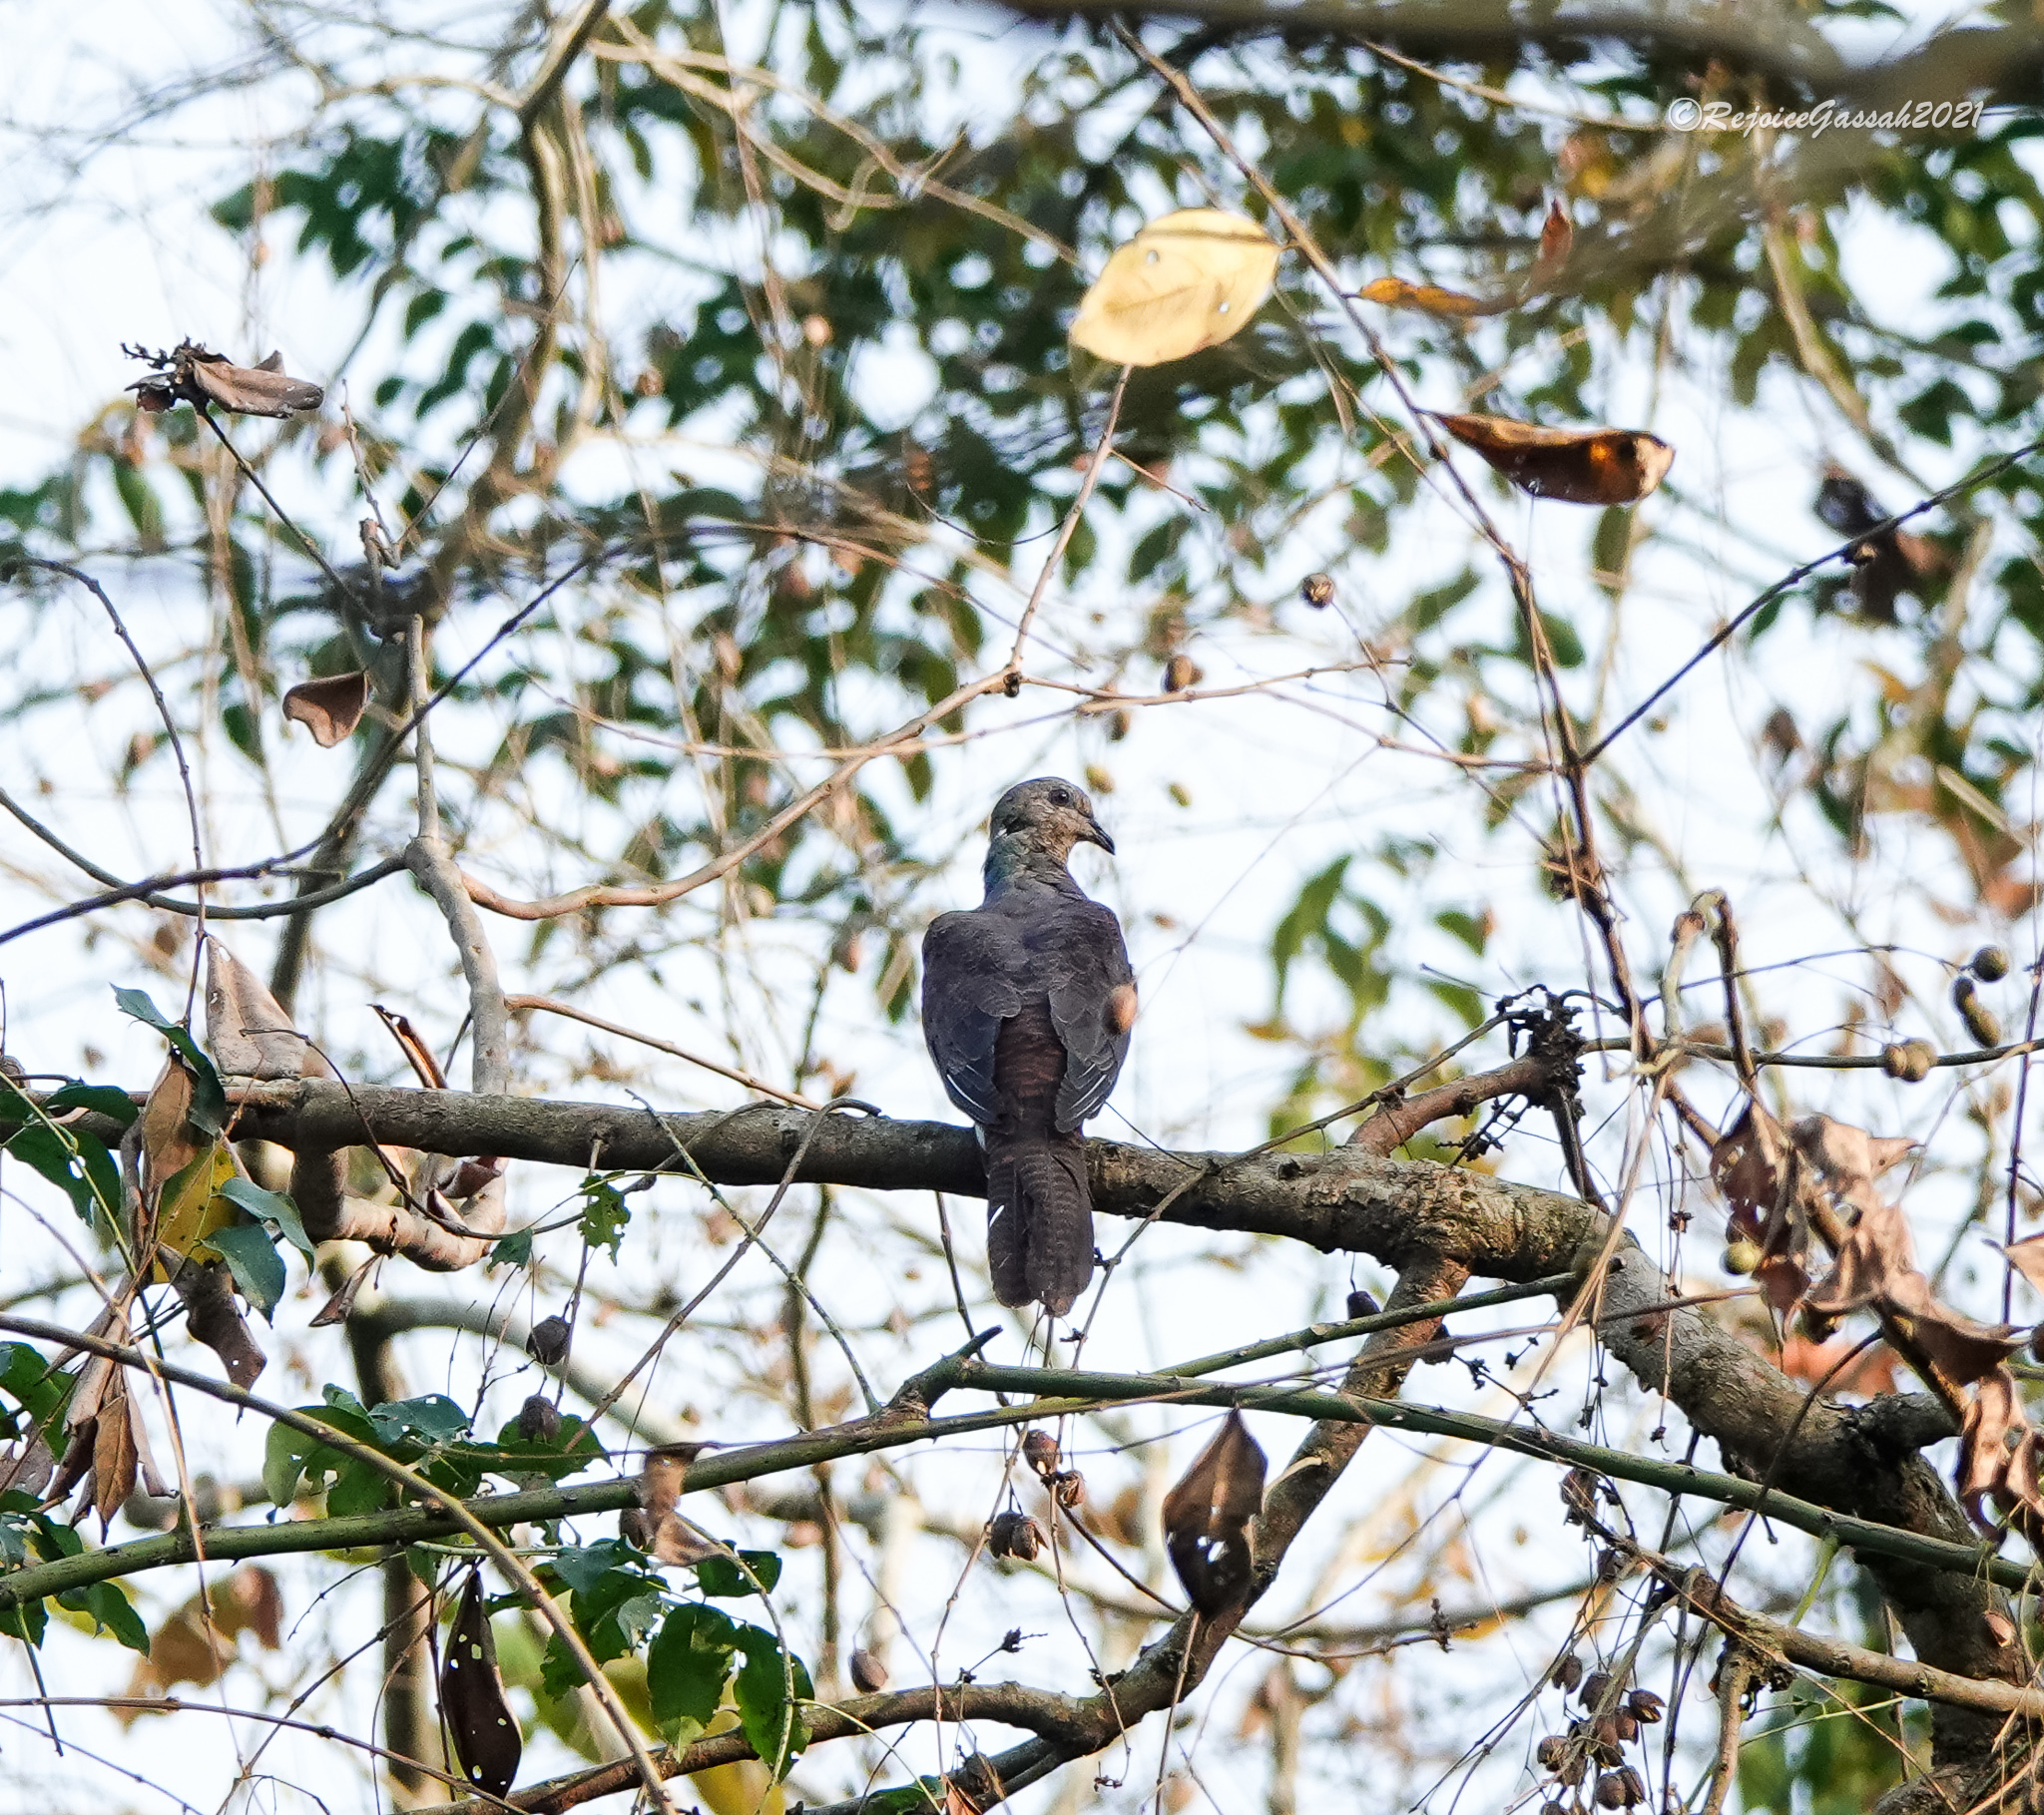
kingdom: Animalia
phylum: Chordata
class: Aves
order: Columbiformes
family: Columbidae
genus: Macropygia
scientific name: Macropygia unchall
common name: Barred cuckoo-dove
